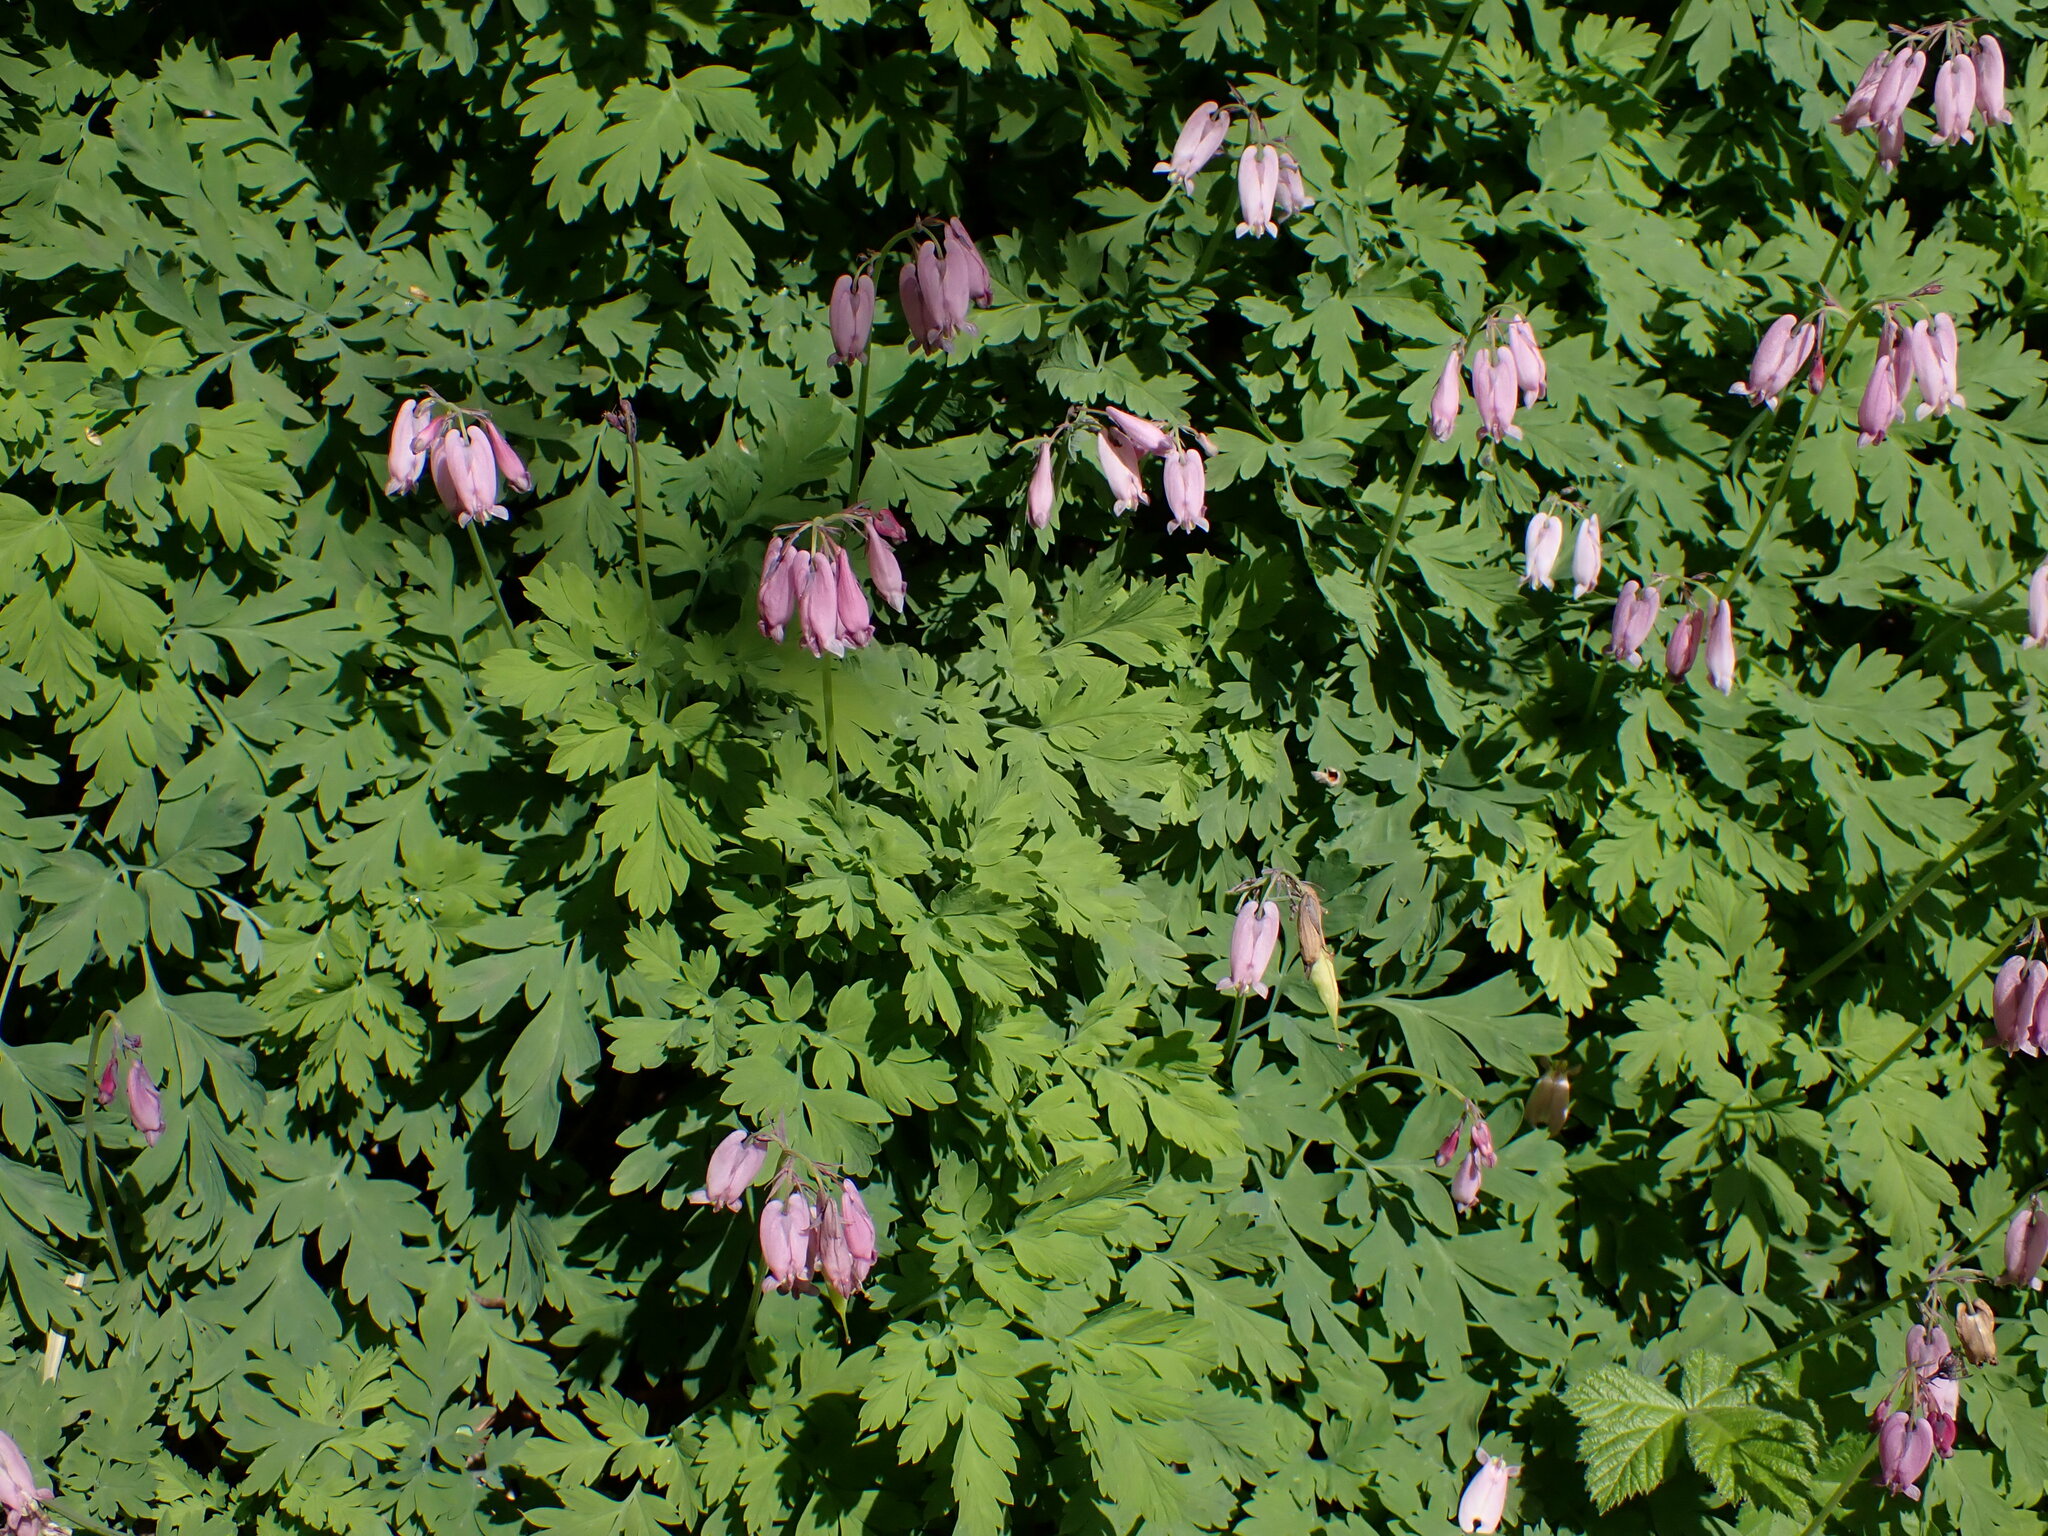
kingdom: Plantae
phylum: Tracheophyta
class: Magnoliopsida
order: Ranunculales
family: Papaveraceae
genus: Dicentra
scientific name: Dicentra formosa
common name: Bleeding-heart
